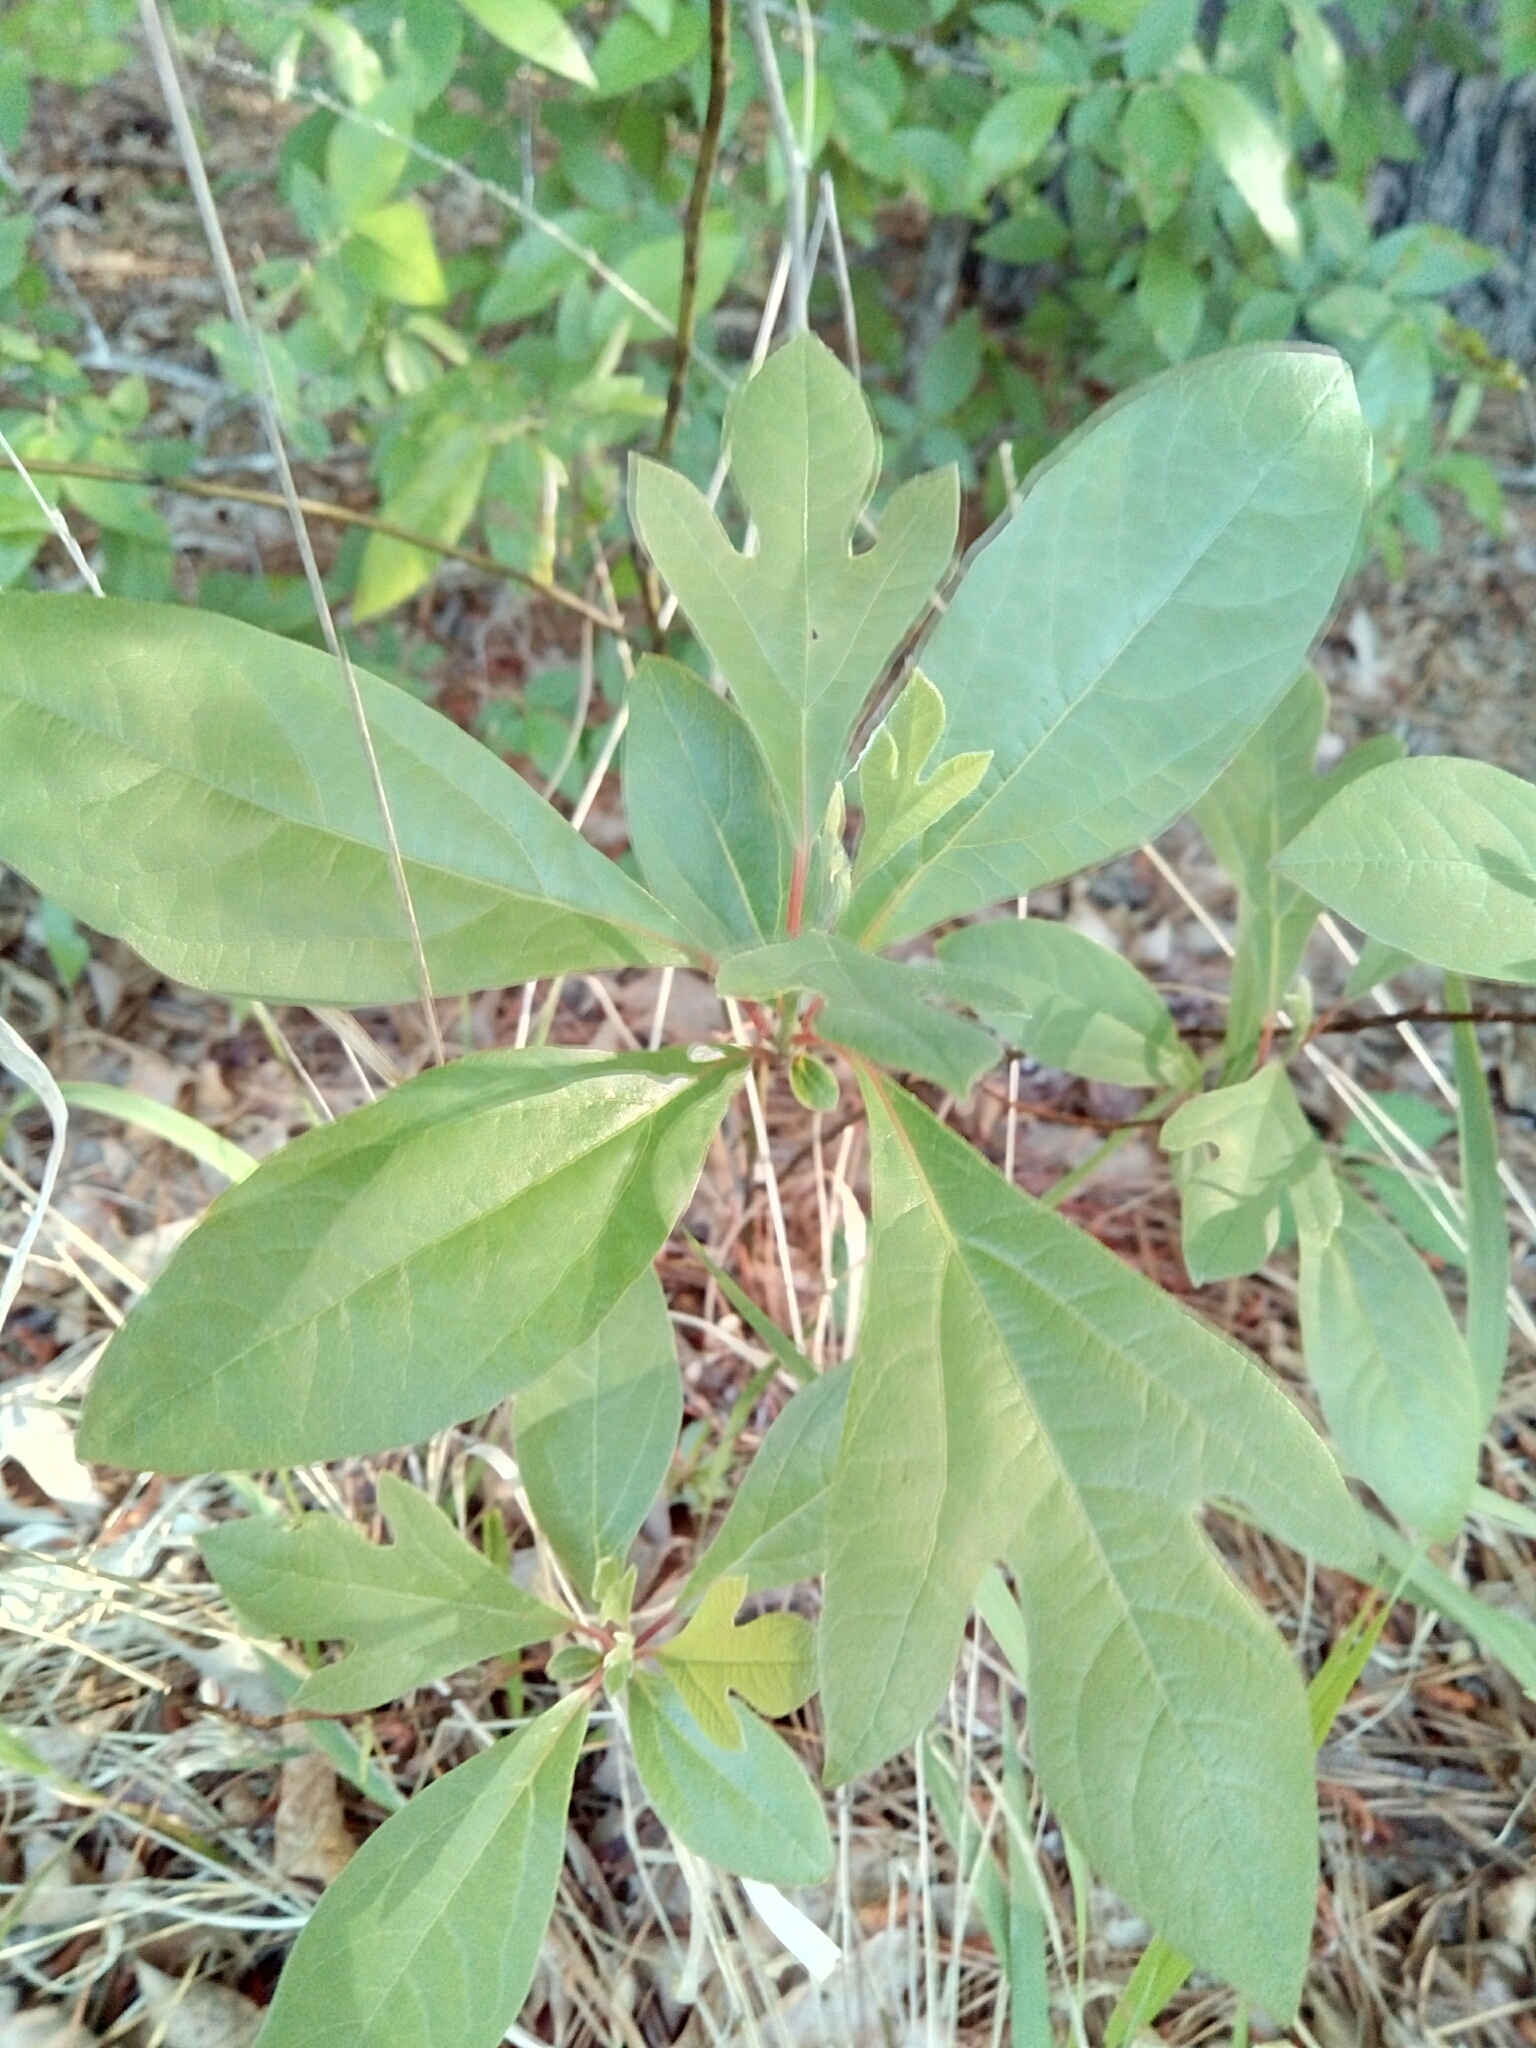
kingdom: Plantae
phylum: Tracheophyta
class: Magnoliopsida
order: Laurales
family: Lauraceae
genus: Sassafras
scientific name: Sassafras albidum
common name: Sassafras
